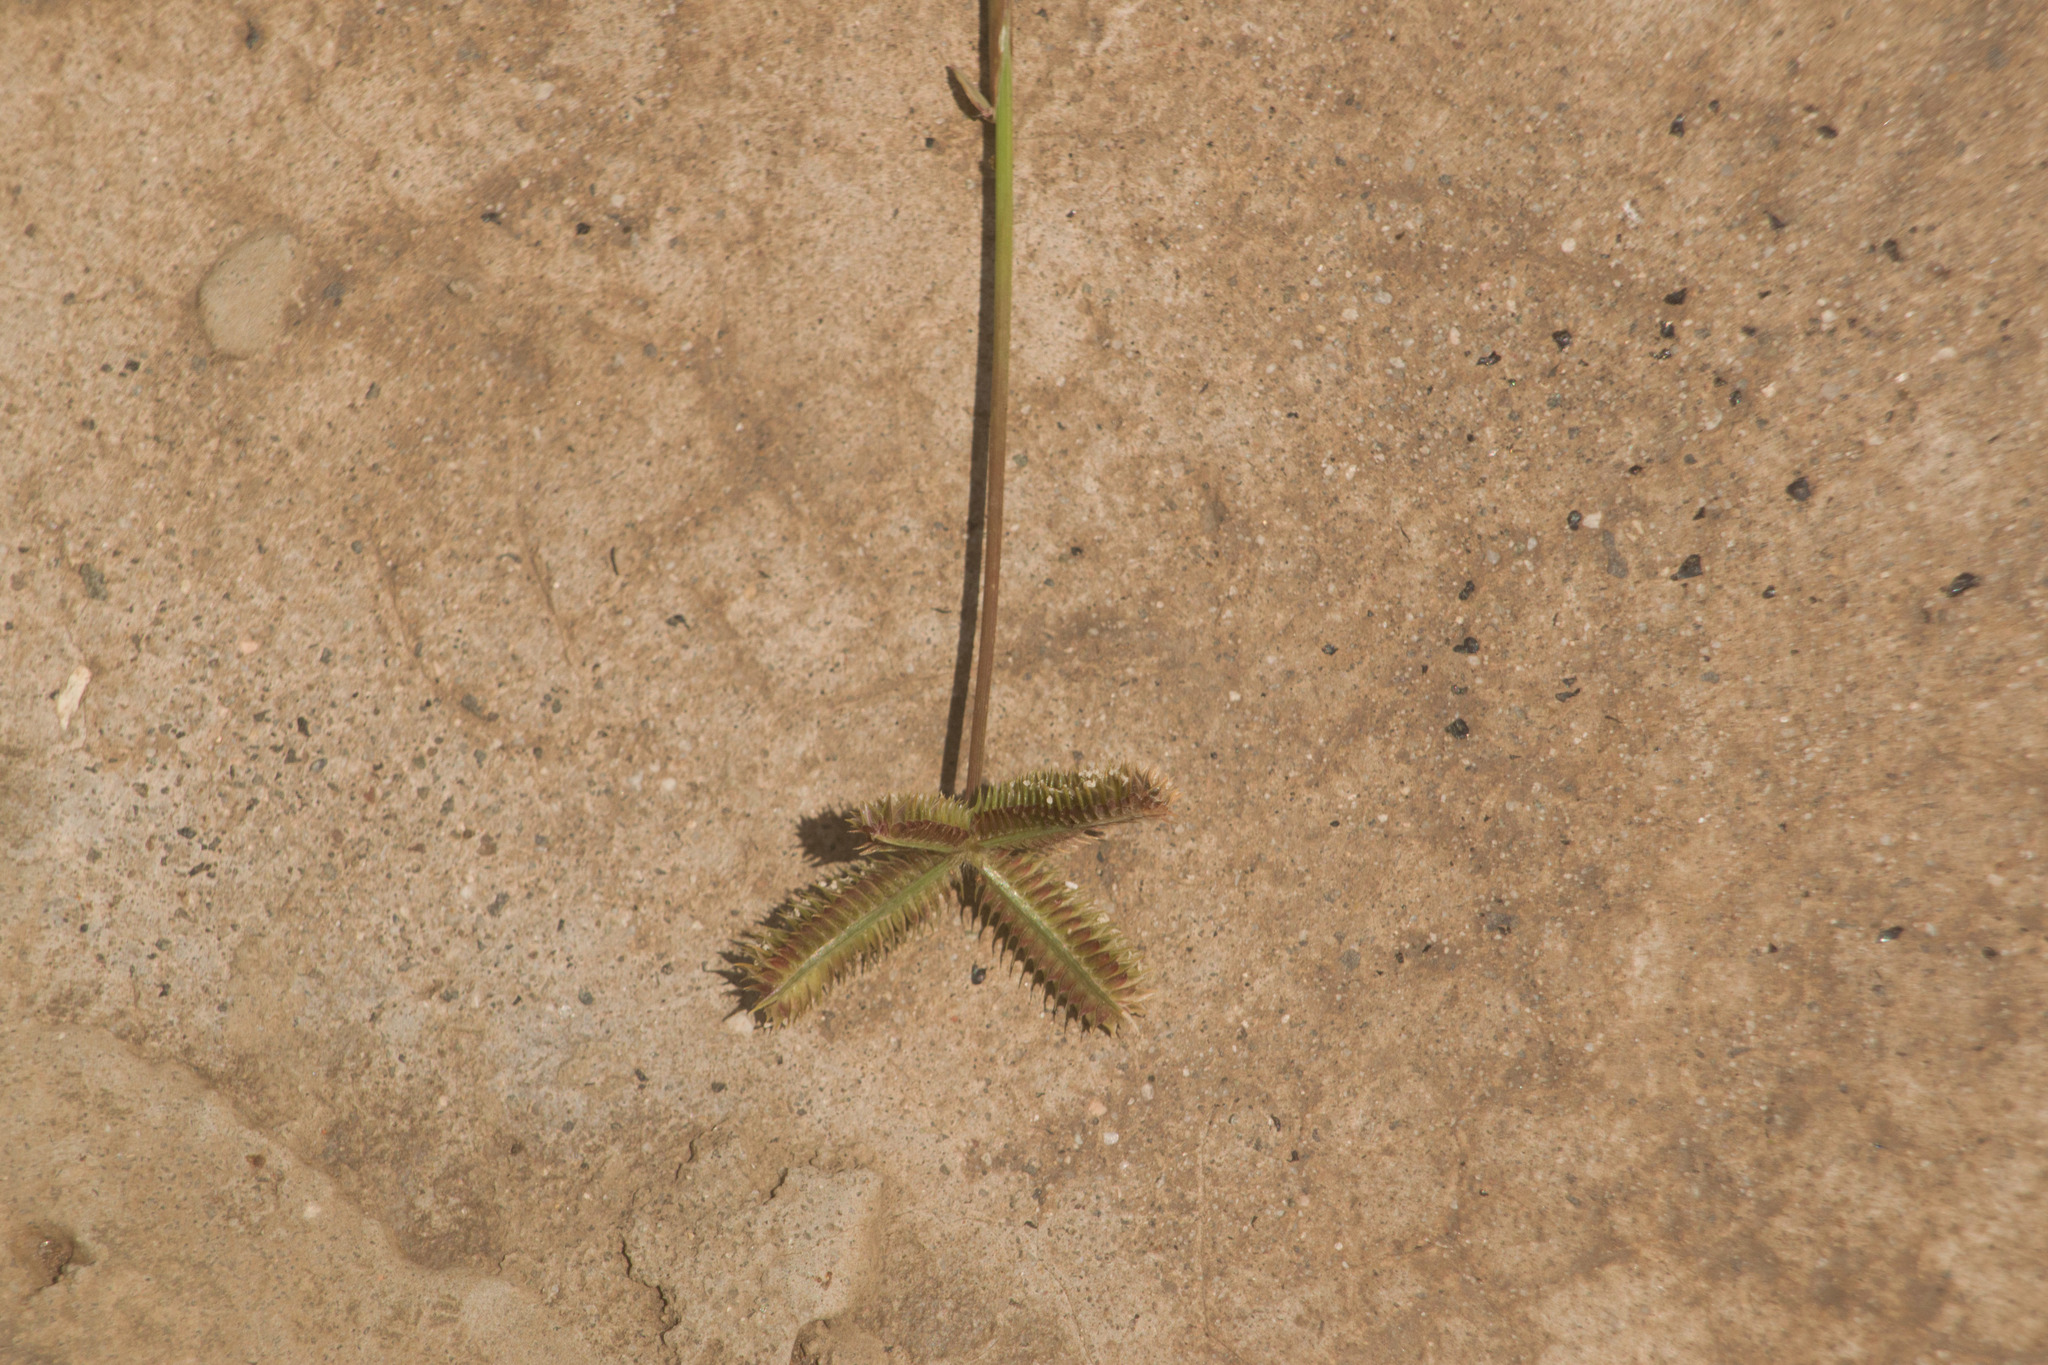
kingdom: Plantae
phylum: Tracheophyta
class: Liliopsida
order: Poales
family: Poaceae
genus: Dactyloctenium
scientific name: Dactyloctenium aegyptium
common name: Egyptian grass
